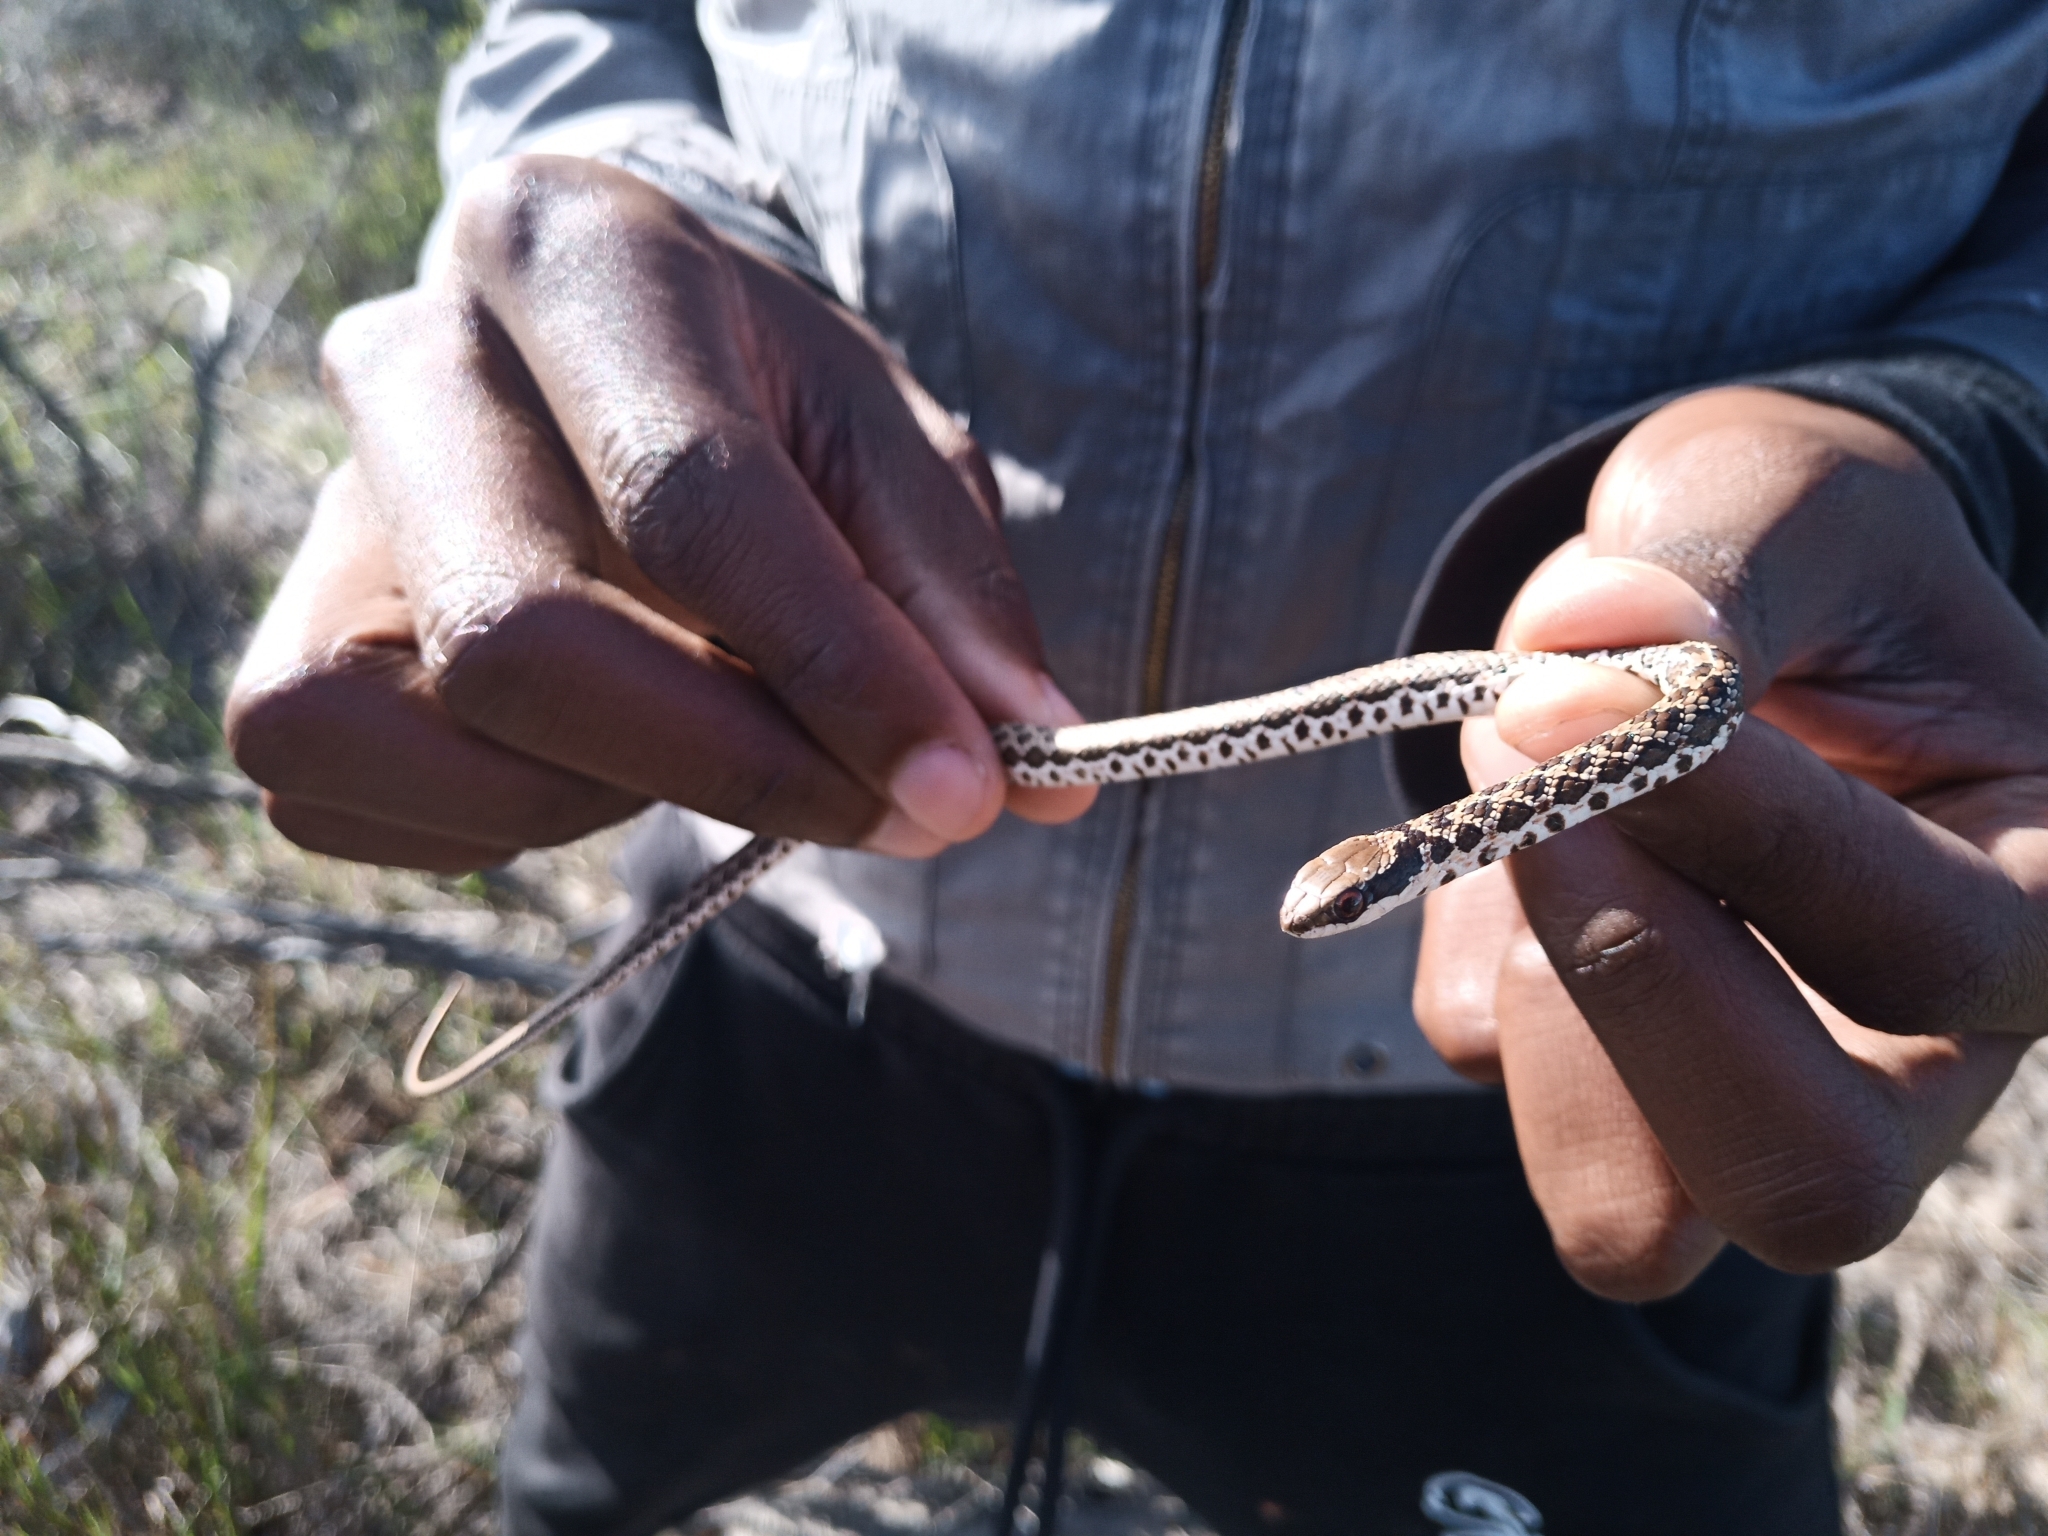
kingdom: Animalia
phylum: Chordata
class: Squamata
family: Psammophiidae
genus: Psammophylax
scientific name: Psammophylax rhombeatus
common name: Rhombic skaapsteker
